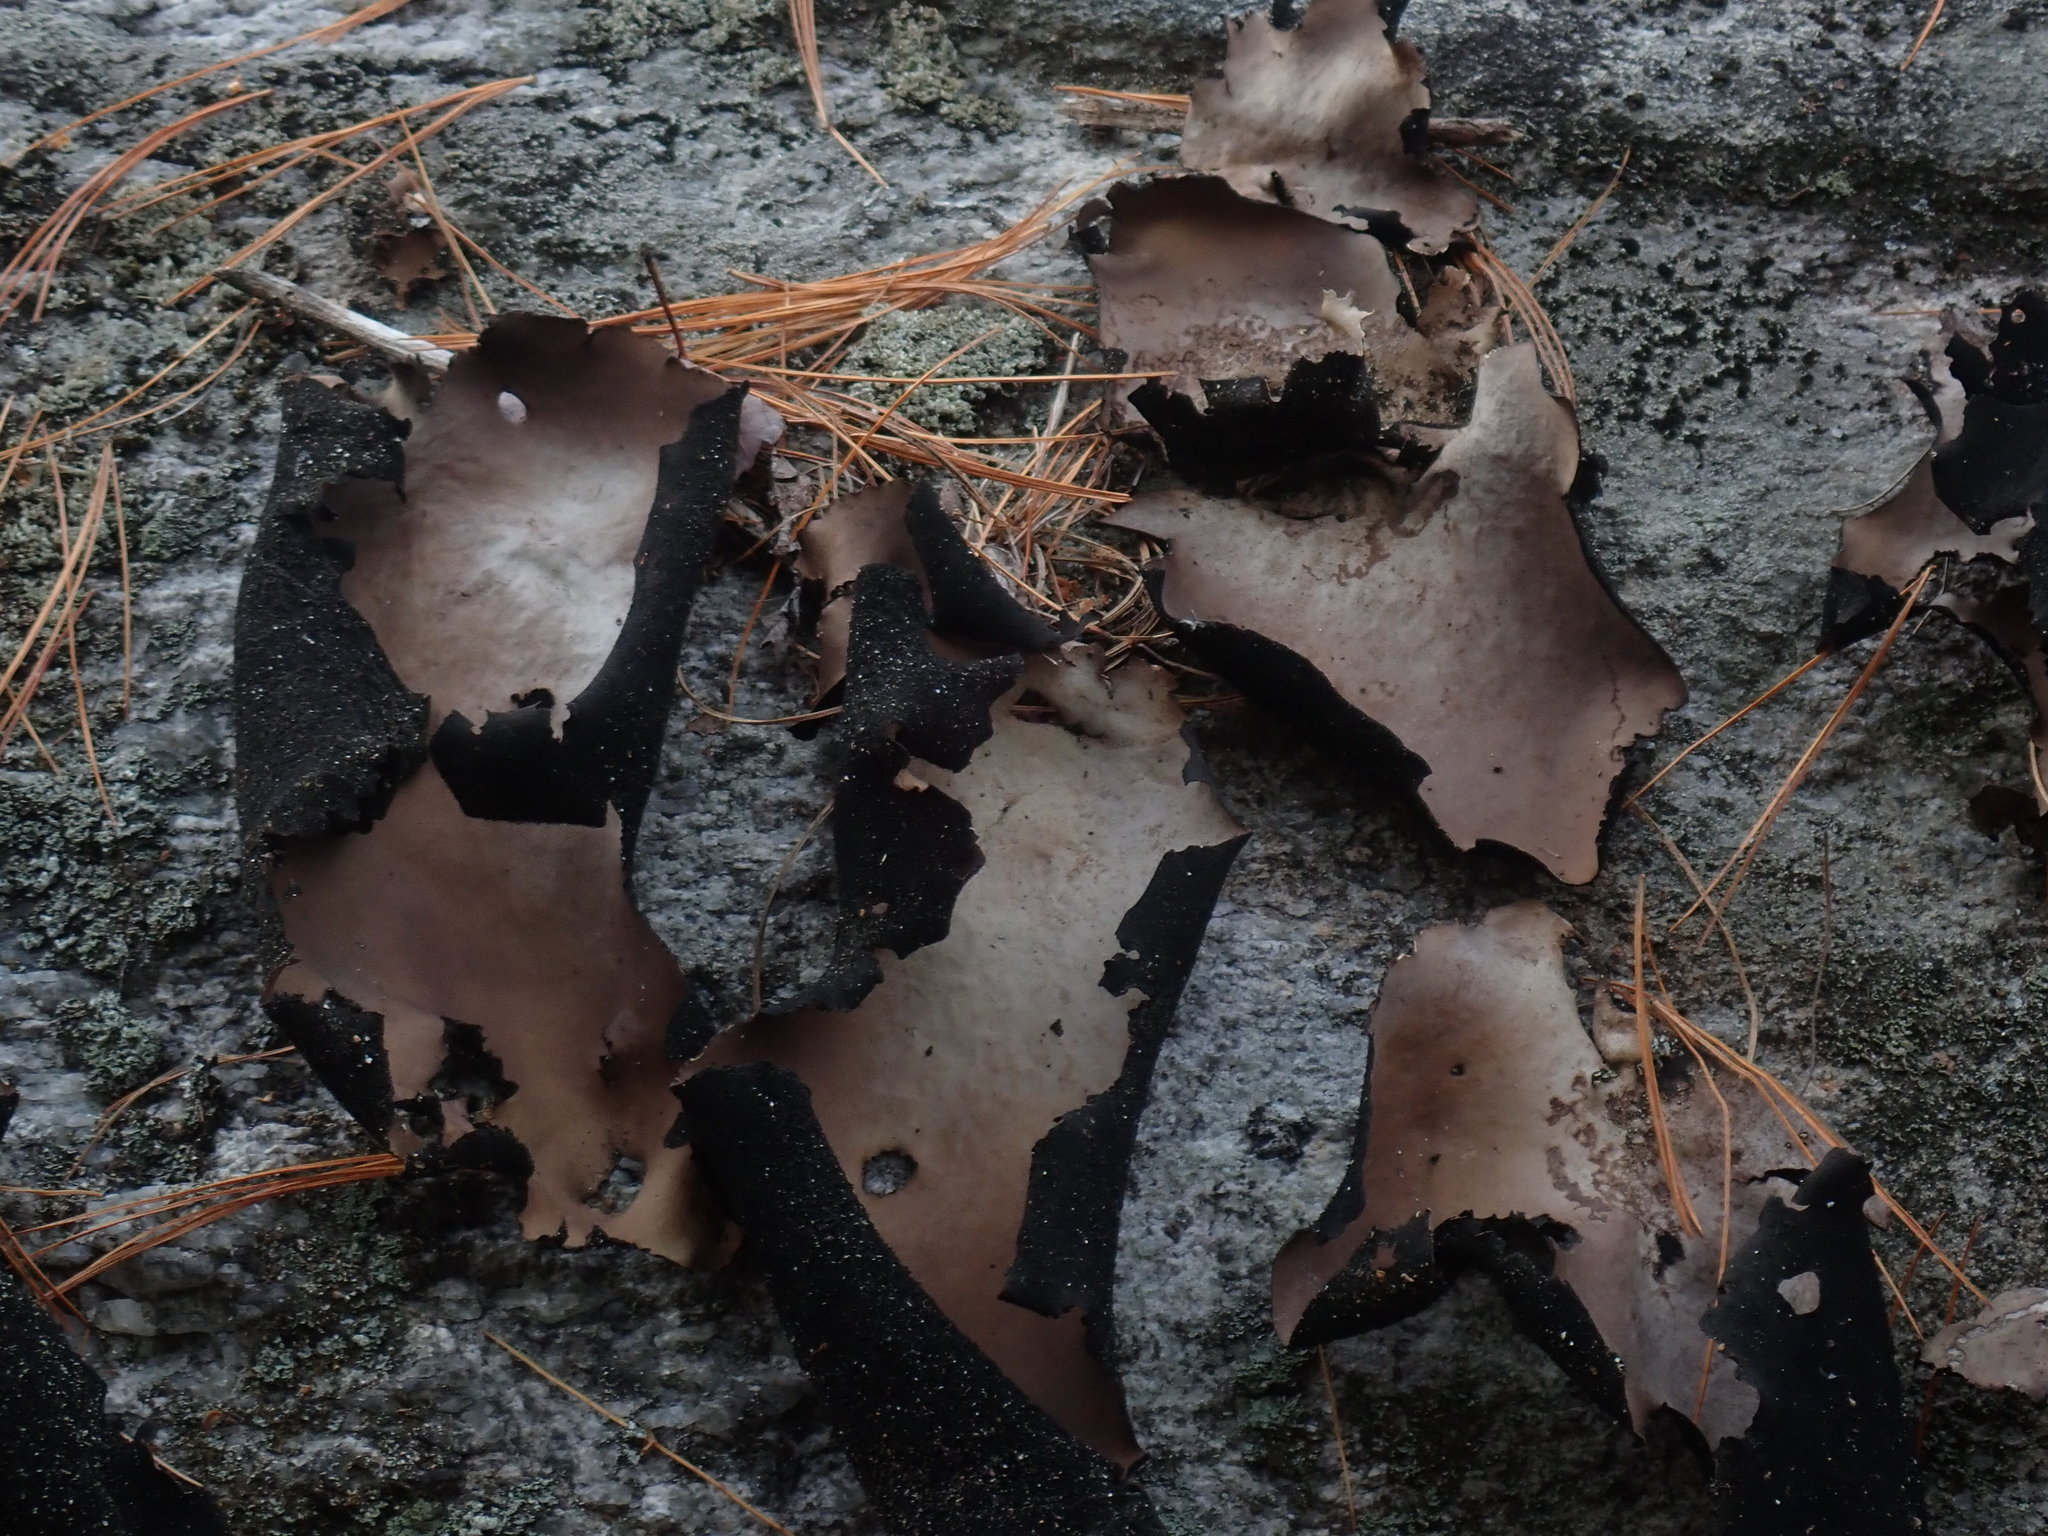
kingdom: Fungi
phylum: Ascomycota
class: Lecanoromycetes
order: Umbilicariales
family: Umbilicariaceae
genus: Umbilicaria
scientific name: Umbilicaria mammulata
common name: Smooth rock tripe
